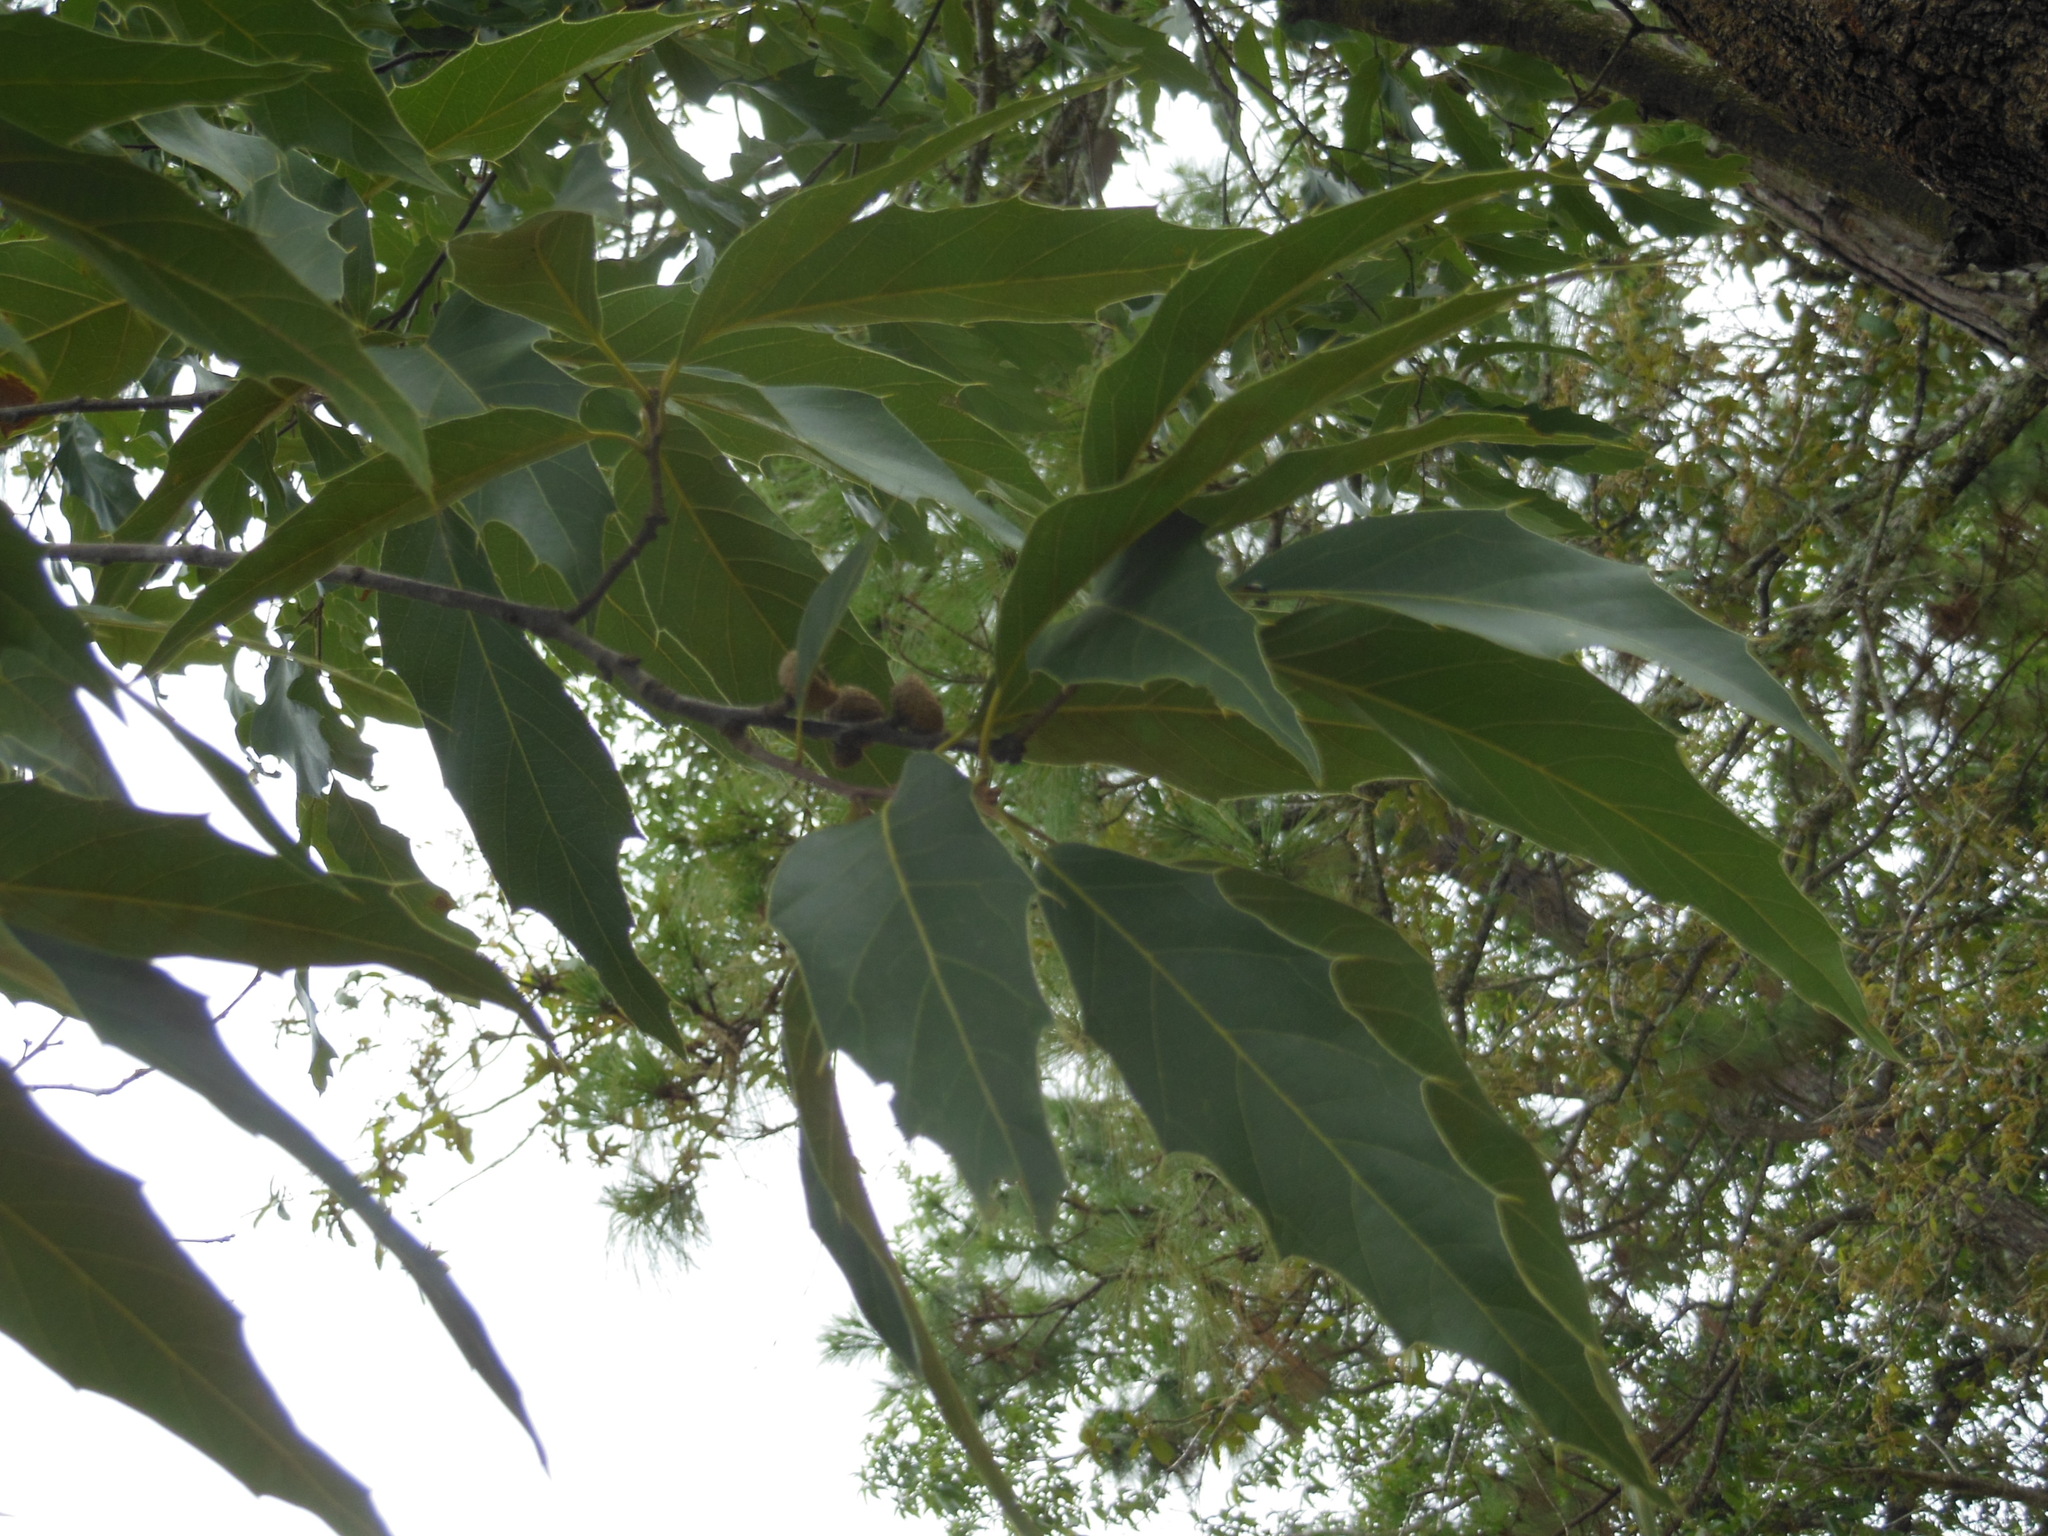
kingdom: Plantae
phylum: Tracheophyta
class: Magnoliopsida
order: Fagales
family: Fagaceae
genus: Quercus
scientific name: Quercus acutifolia
